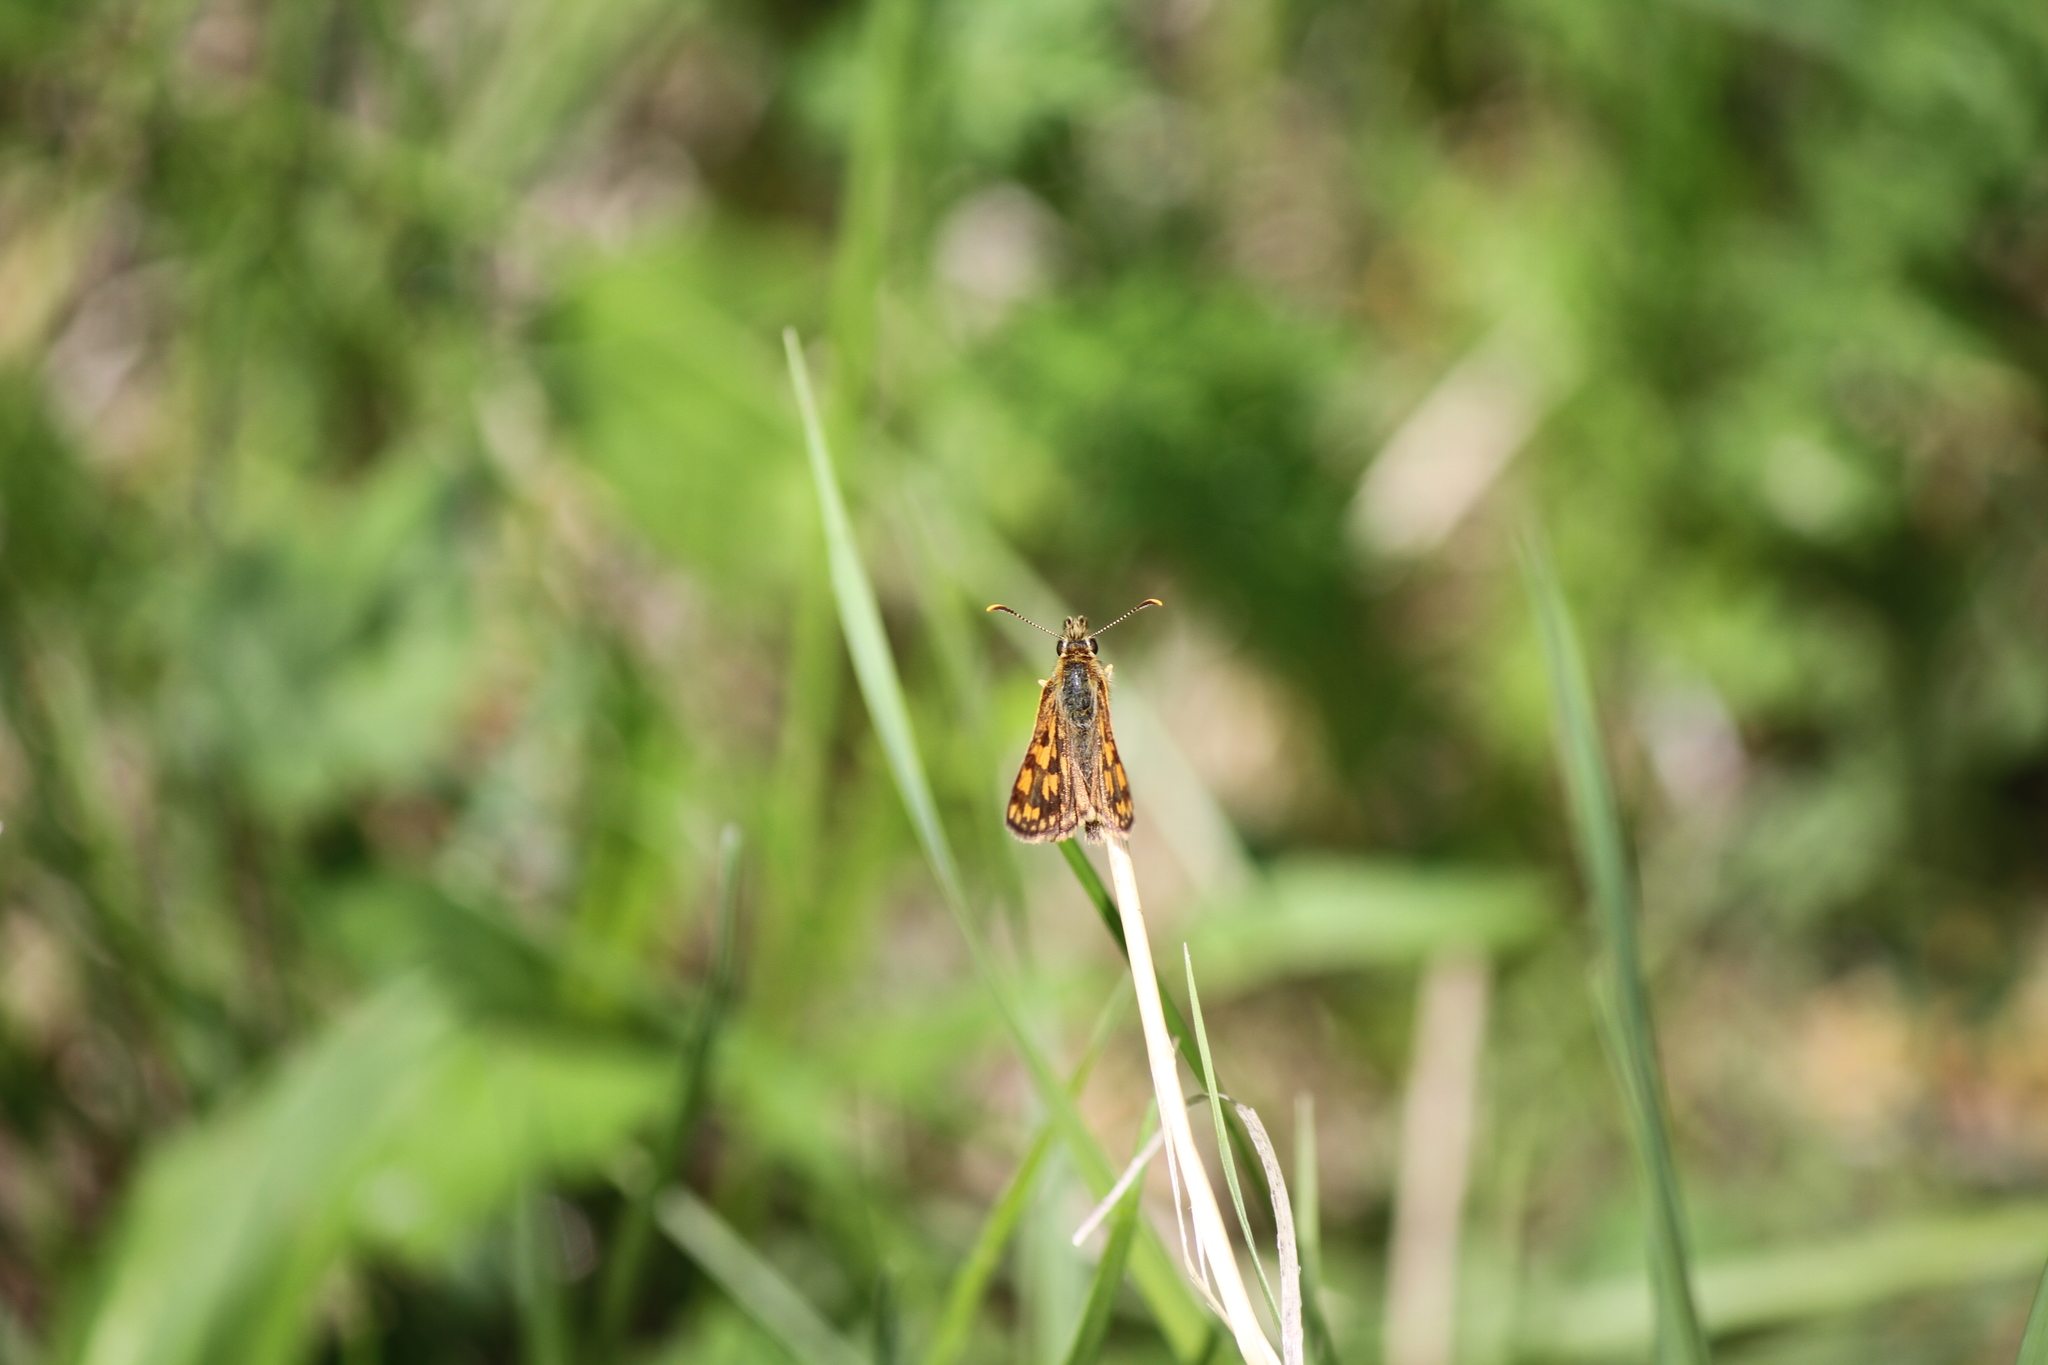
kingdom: Animalia
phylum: Arthropoda
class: Insecta
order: Lepidoptera
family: Hesperiidae
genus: Carterocephalus
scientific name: Carterocephalus mandan
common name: Arctic skipperling
